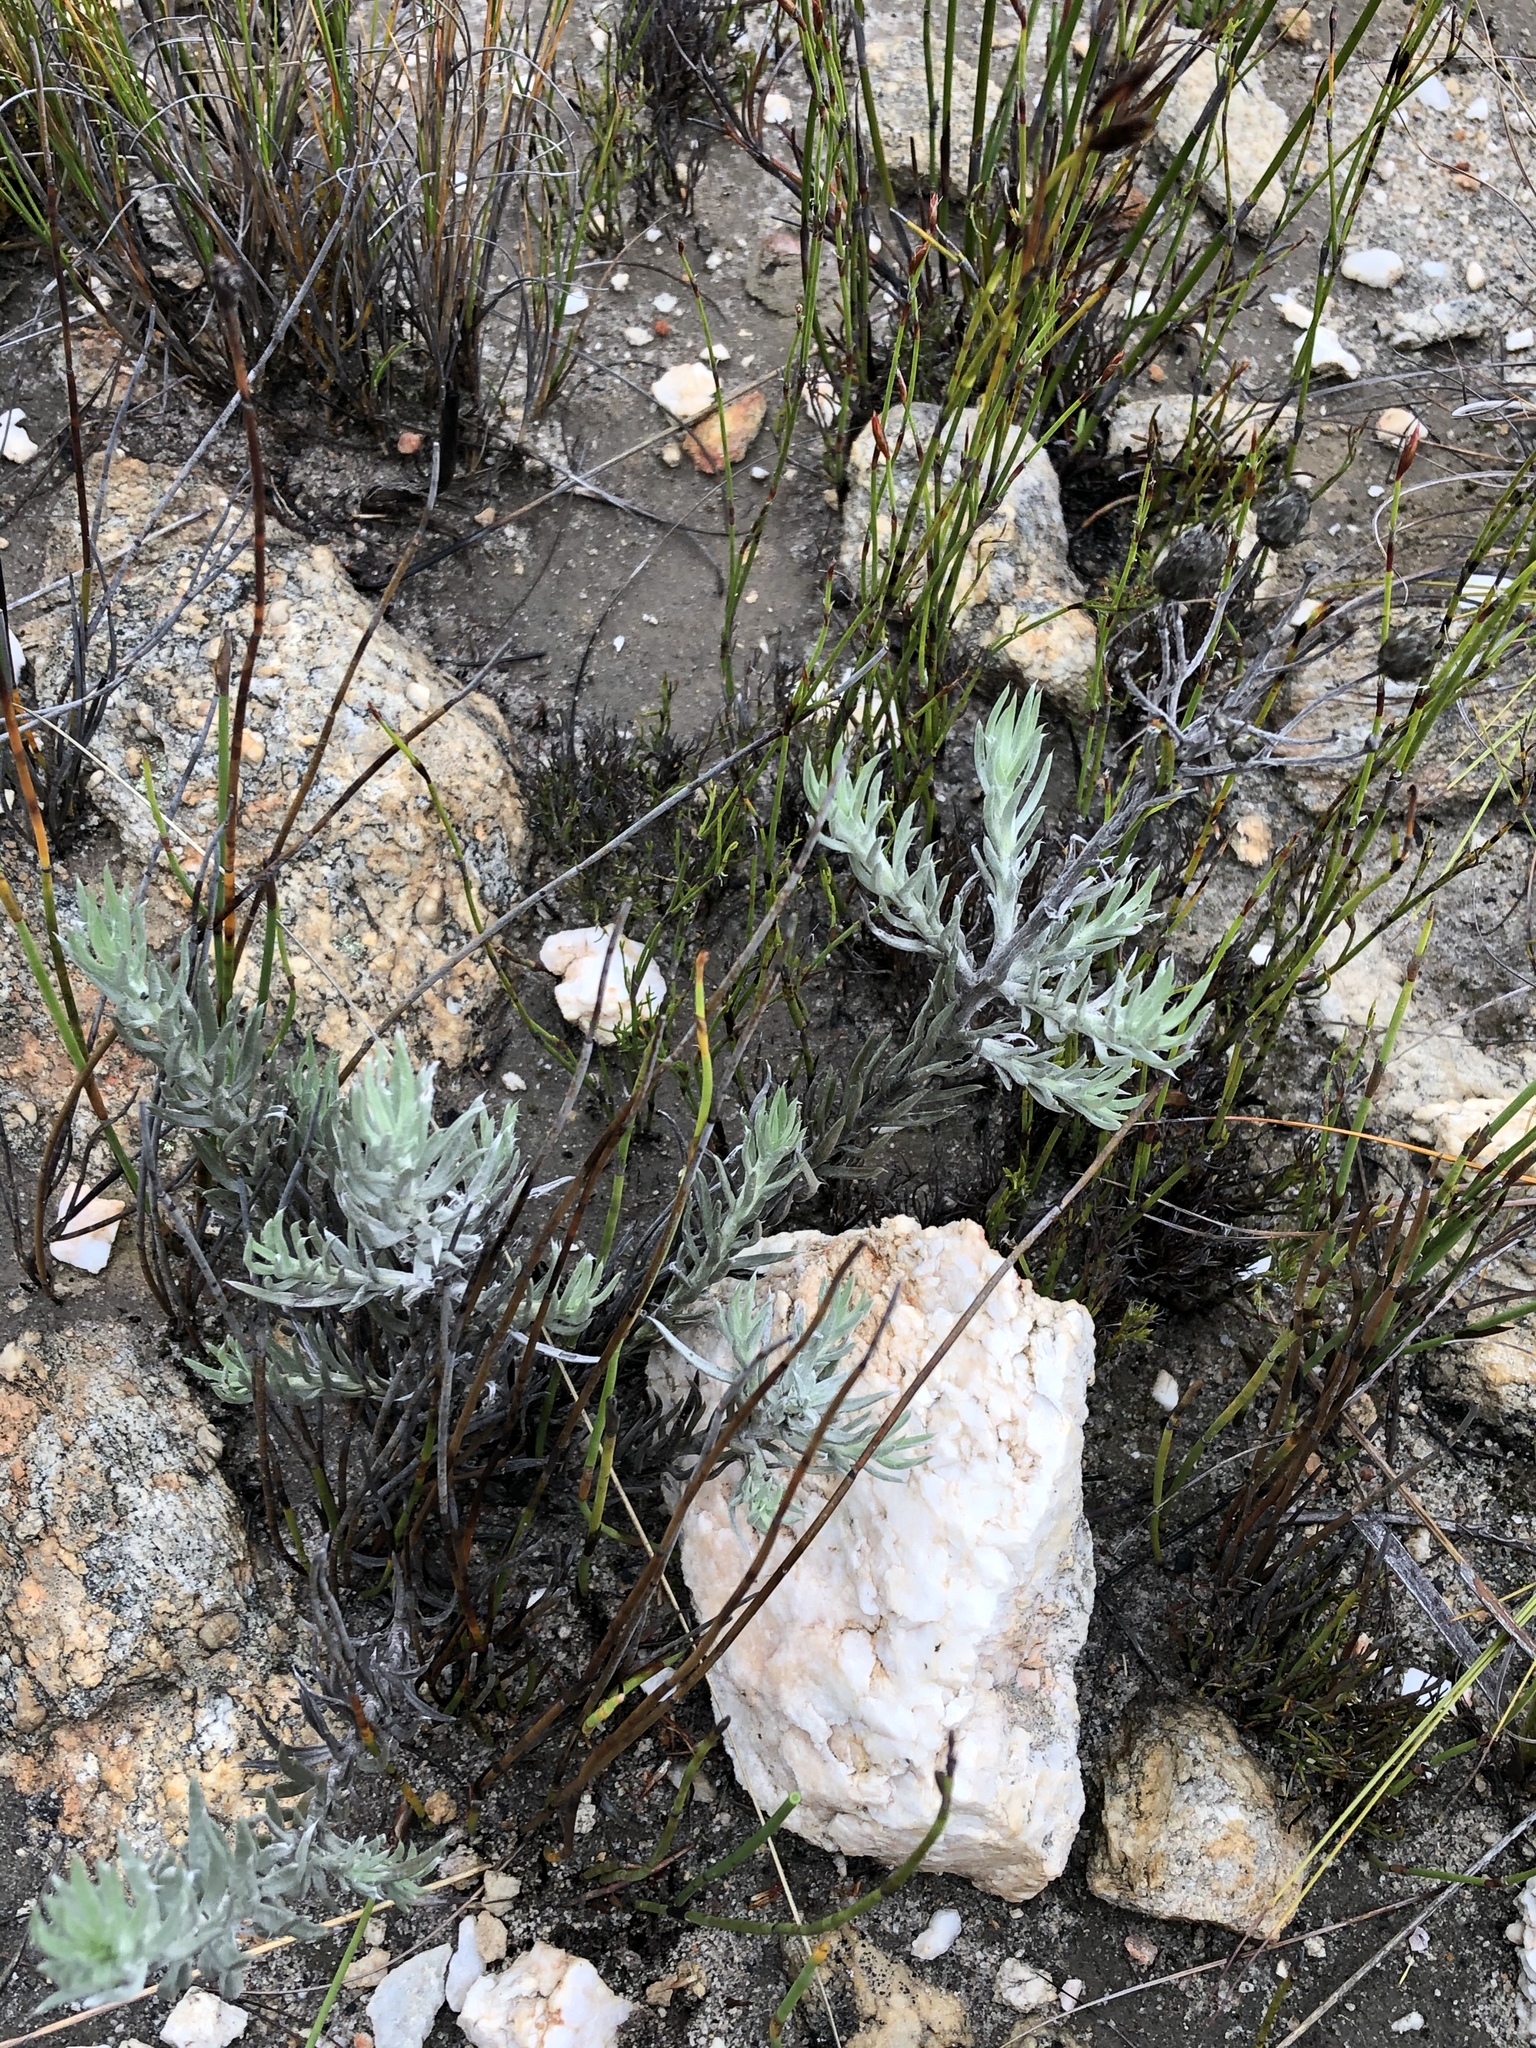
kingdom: Plantae
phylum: Tracheophyta
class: Magnoliopsida
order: Asterales
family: Asteraceae
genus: Achyranthemum
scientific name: Achyranthemum paniculatum
